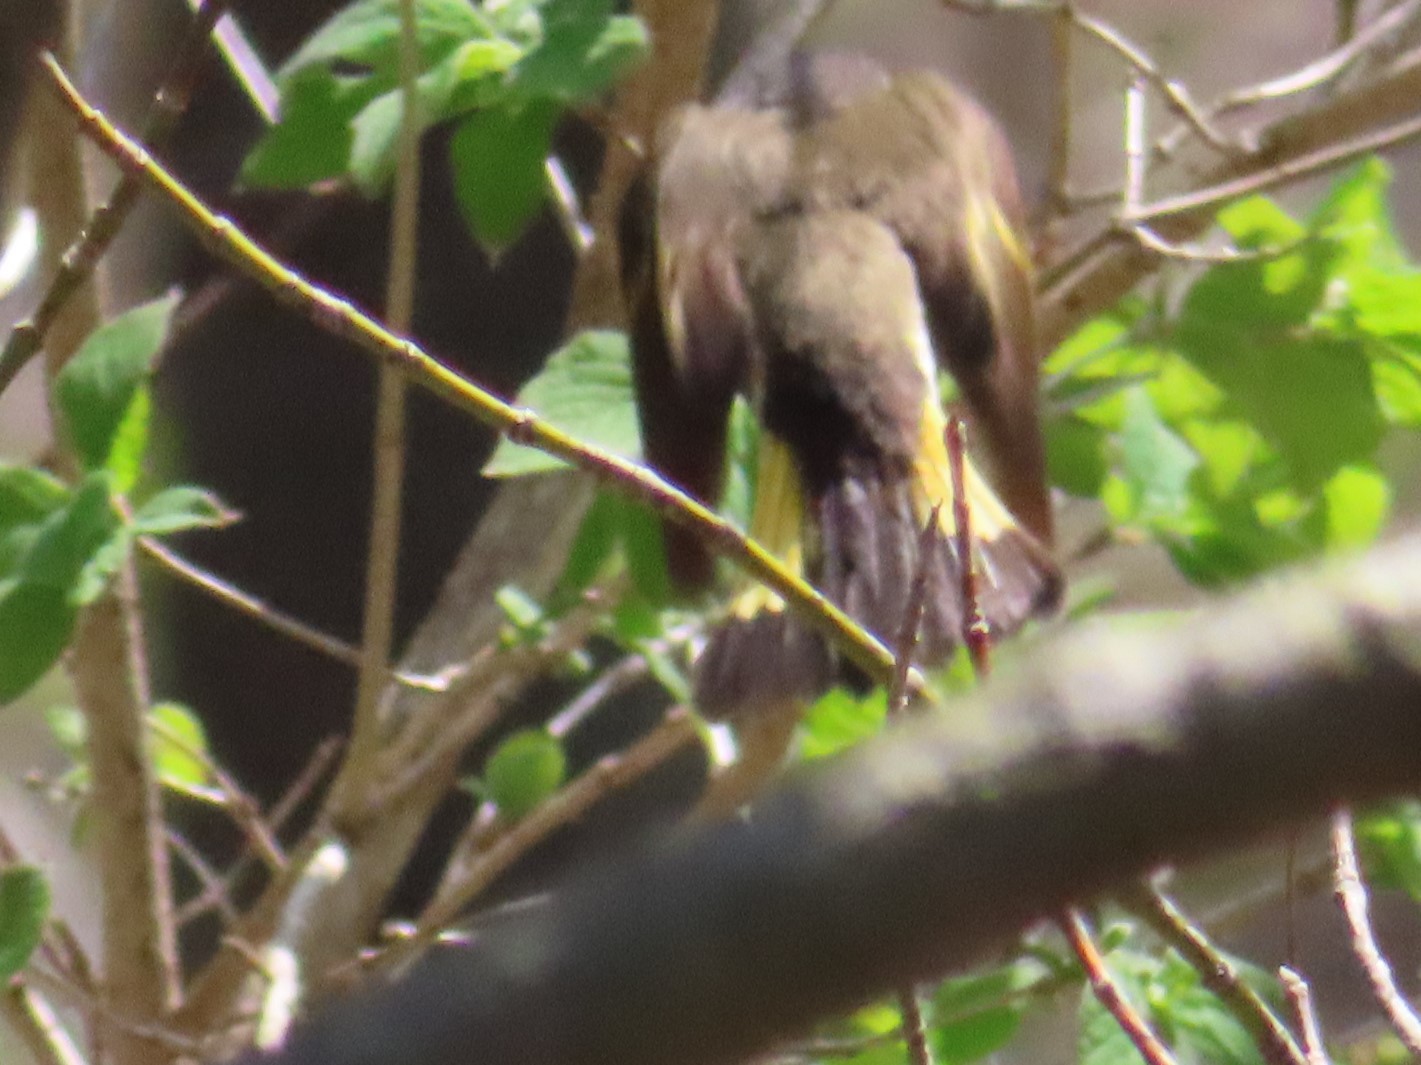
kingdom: Animalia
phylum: Chordata
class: Aves
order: Passeriformes
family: Parulidae
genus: Setophaga
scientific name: Setophaga ruticilla
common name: American redstart
